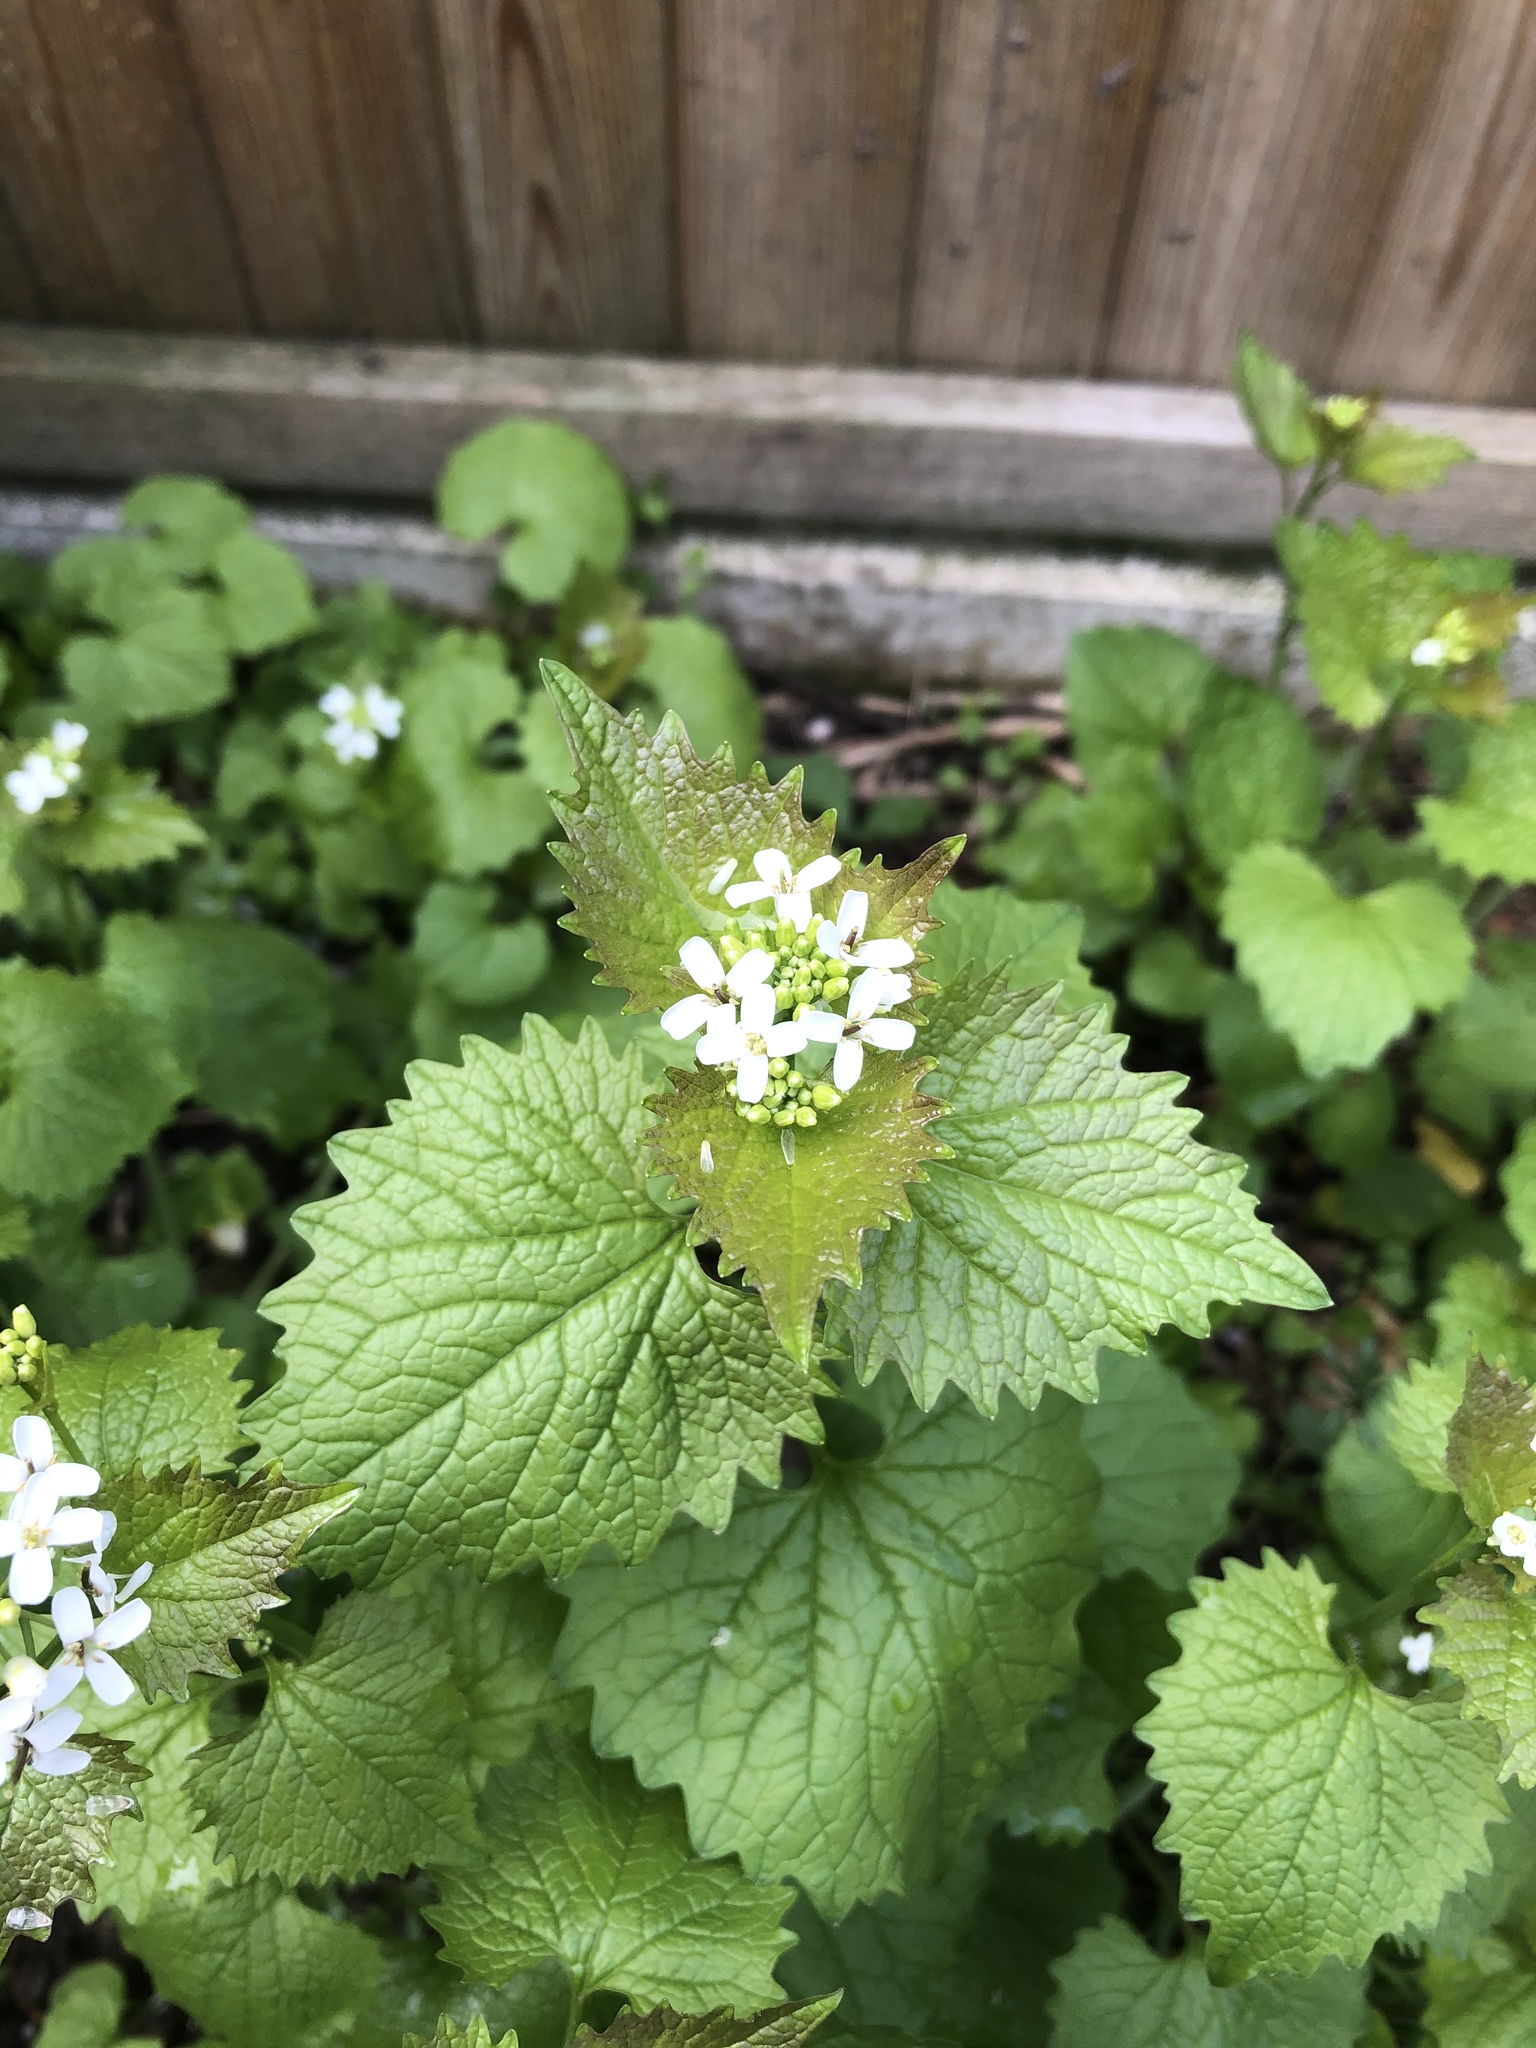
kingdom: Plantae
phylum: Tracheophyta
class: Magnoliopsida
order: Brassicales
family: Brassicaceae
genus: Alliaria
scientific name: Alliaria petiolata
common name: Garlic mustard
